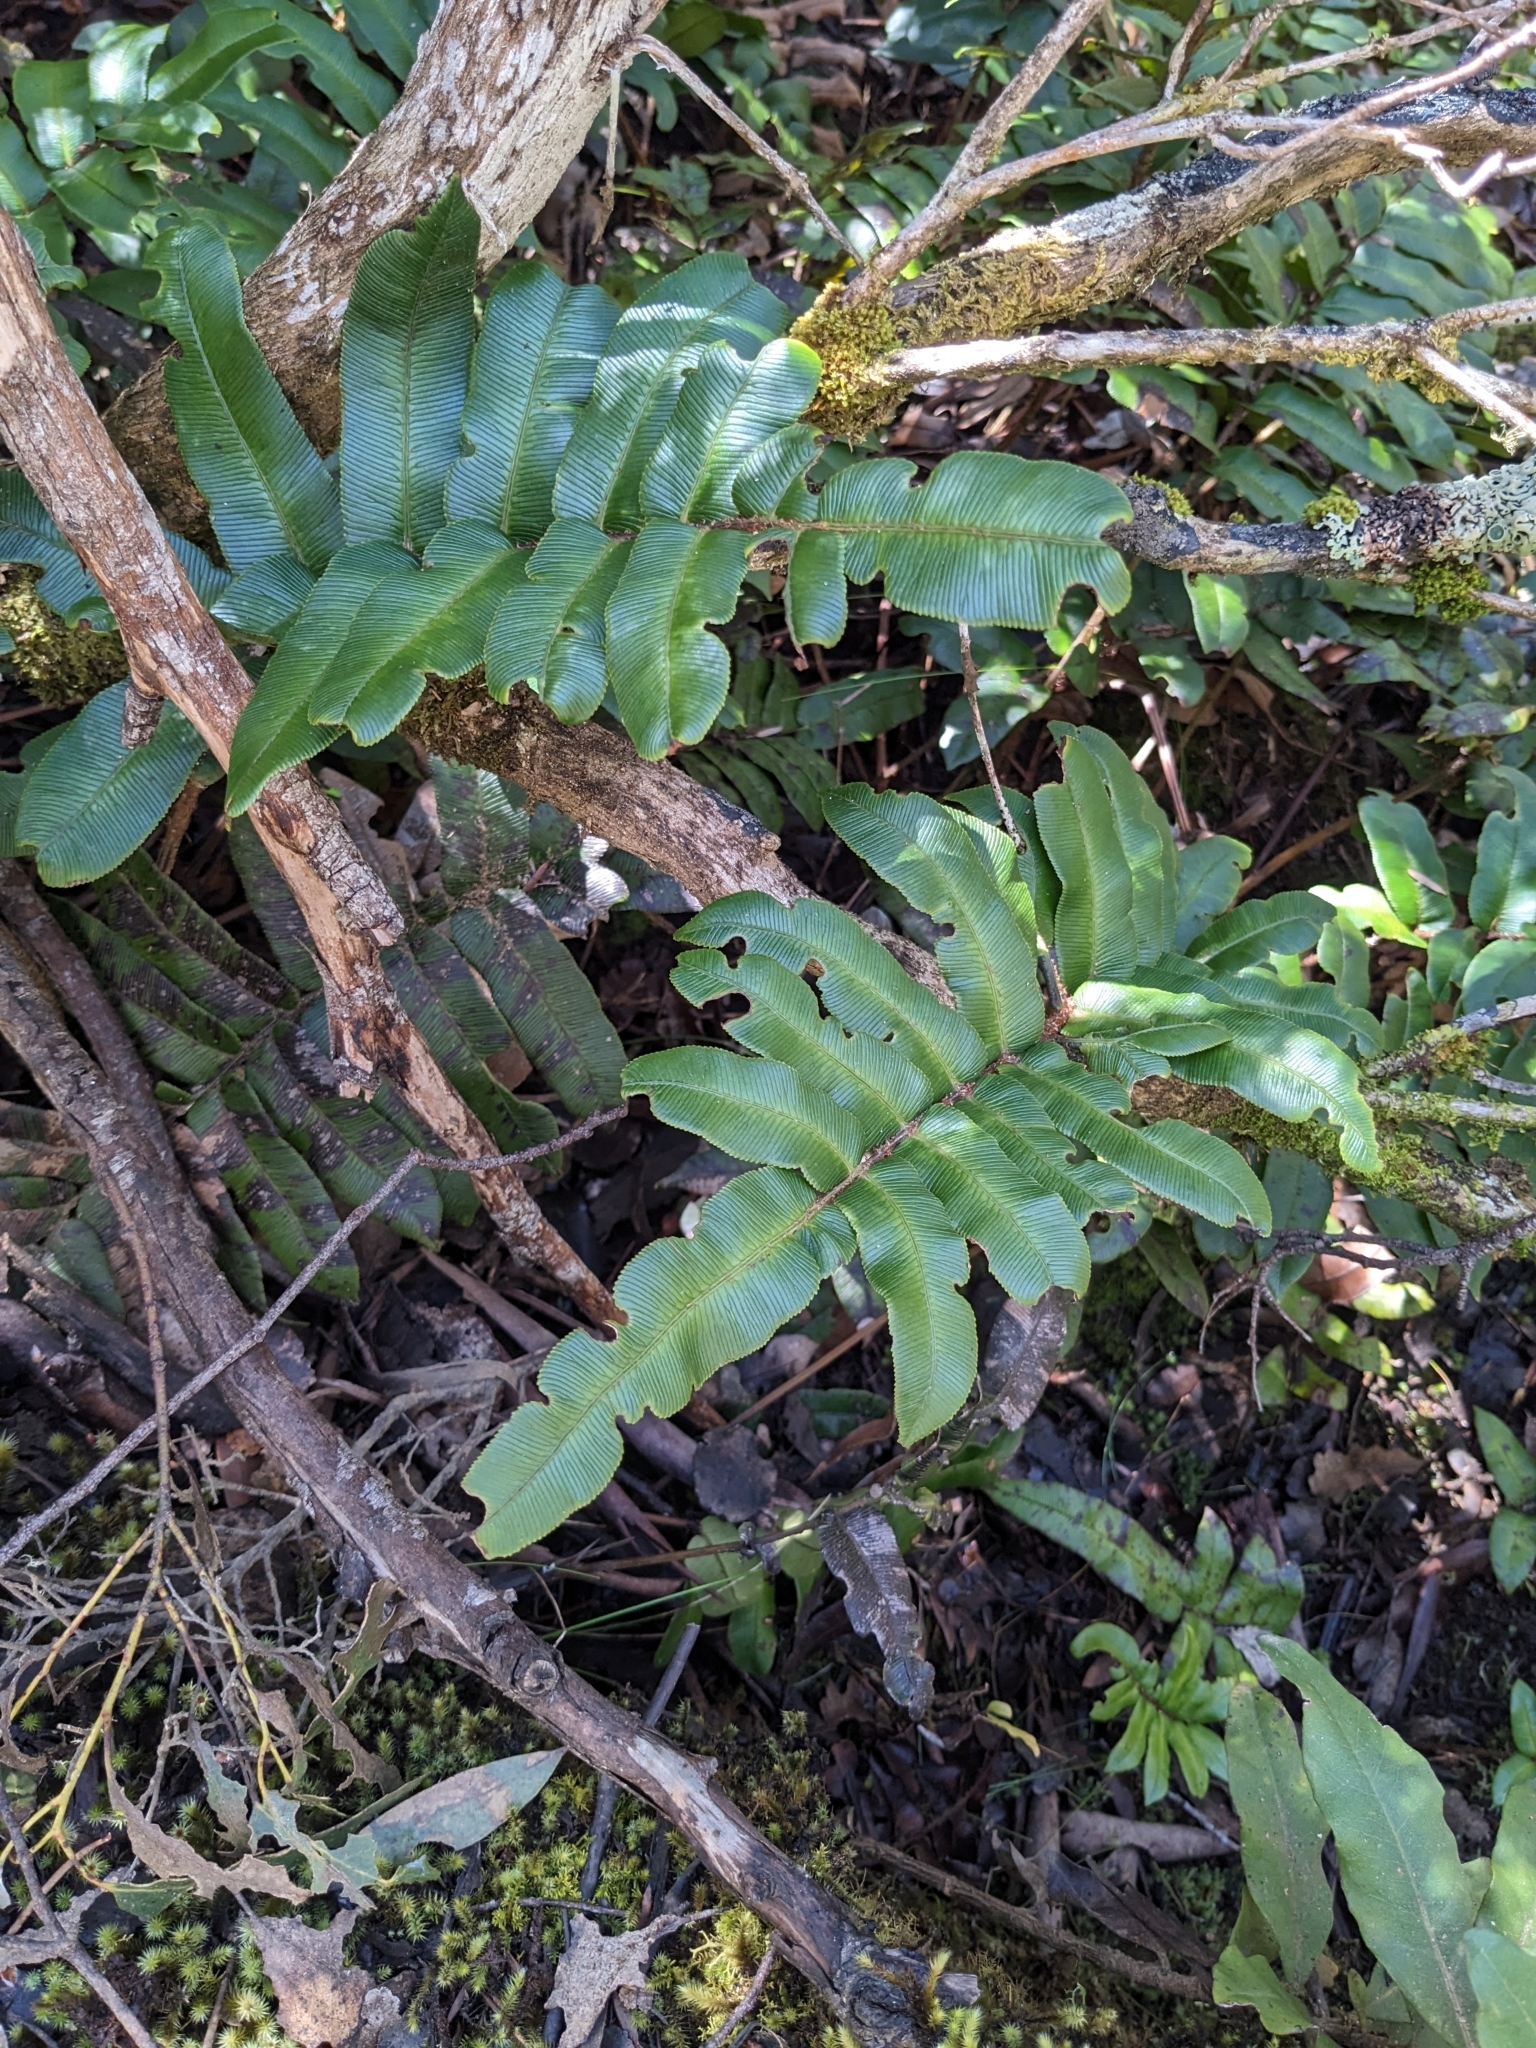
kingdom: Plantae
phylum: Tracheophyta
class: Polypodiopsida
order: Polypodiales
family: Blechnaceae
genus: Parablechnum
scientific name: Parablechnum wattsii
